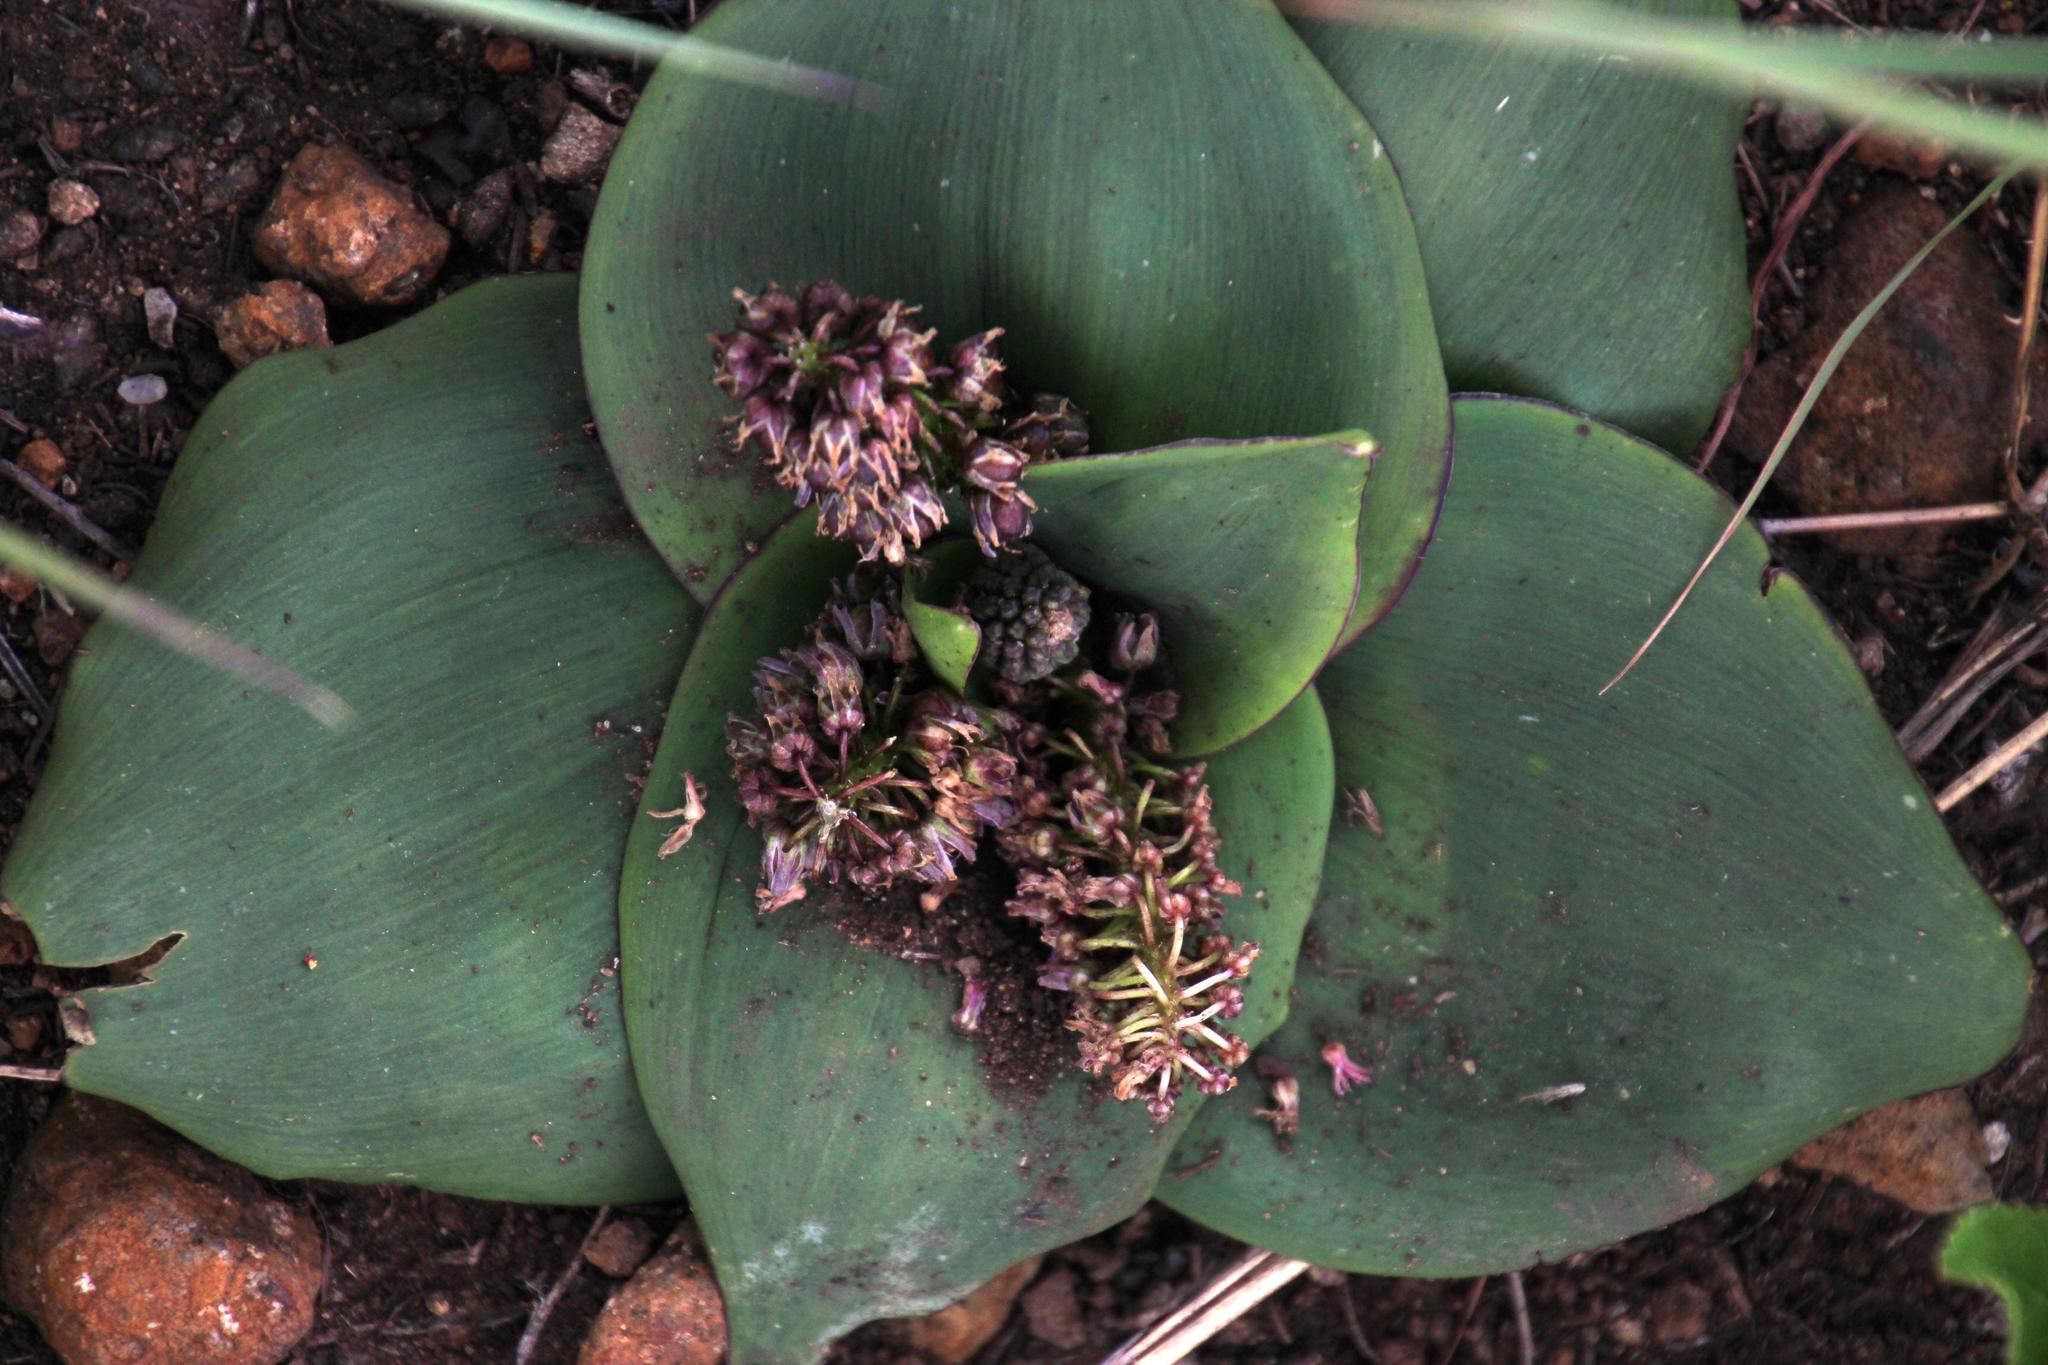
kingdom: Plantae
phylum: Tracheophyta
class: Liliopsida
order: Asparagales
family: Asparagaceae
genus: Ledebouria
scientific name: Ledebouria ovatifolia
